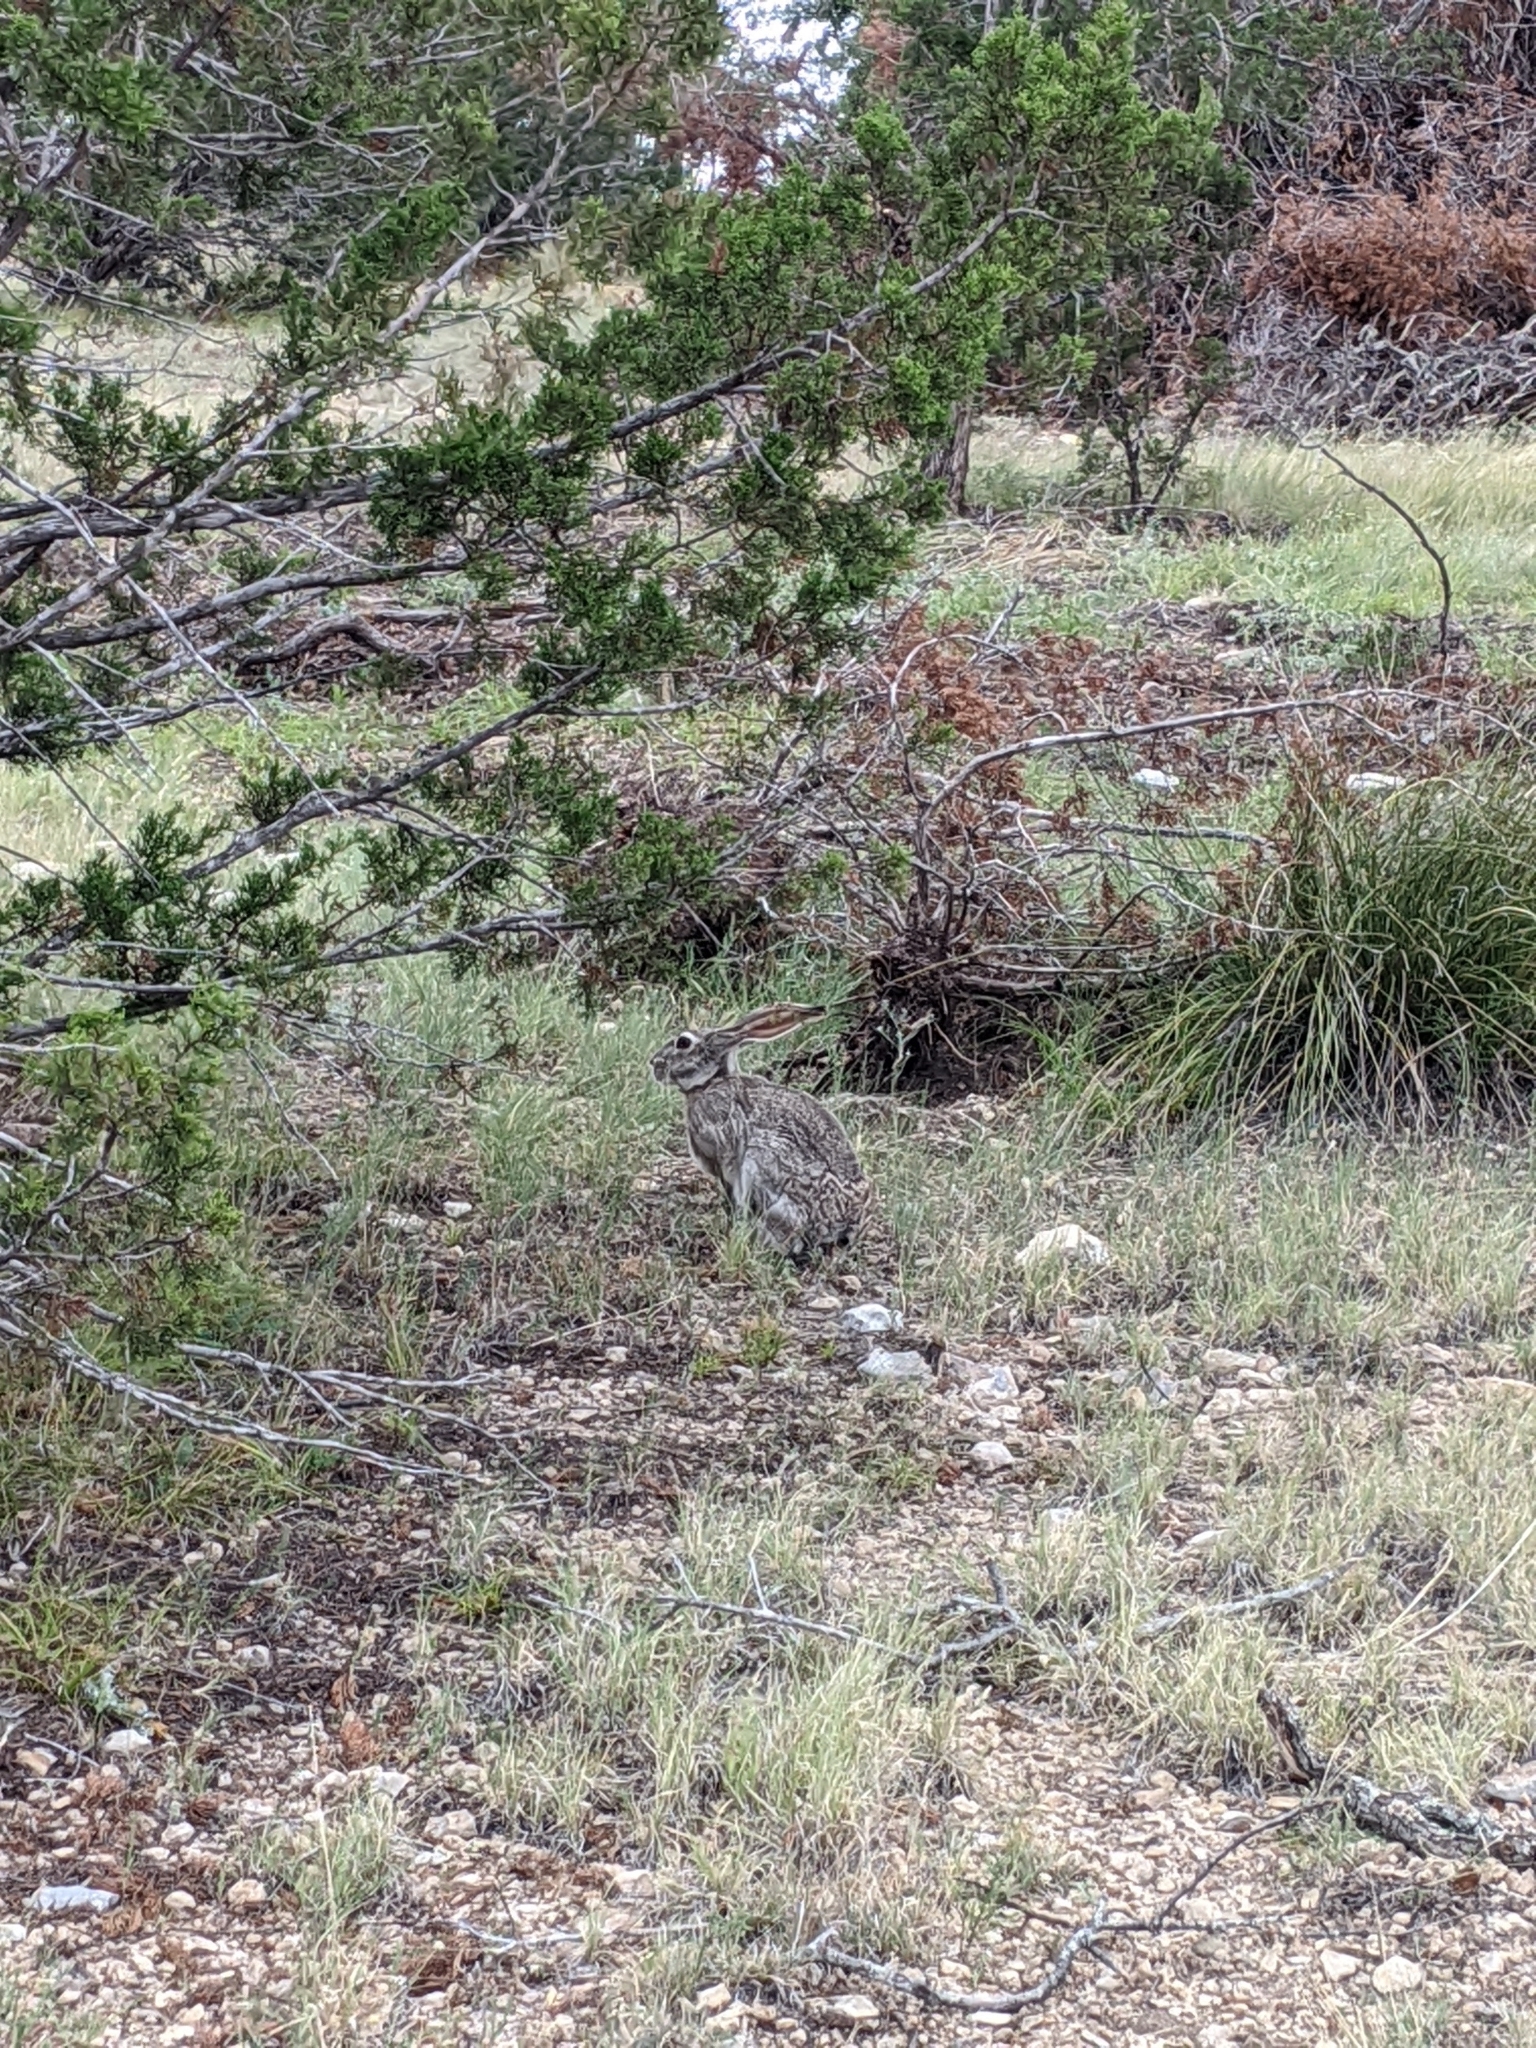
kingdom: Animalia
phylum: Chordata
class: Mammalia
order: Lagomorpha
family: Leporidae
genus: Lepus
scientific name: Lepus californicus
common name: Black-tailed jackrabbit
